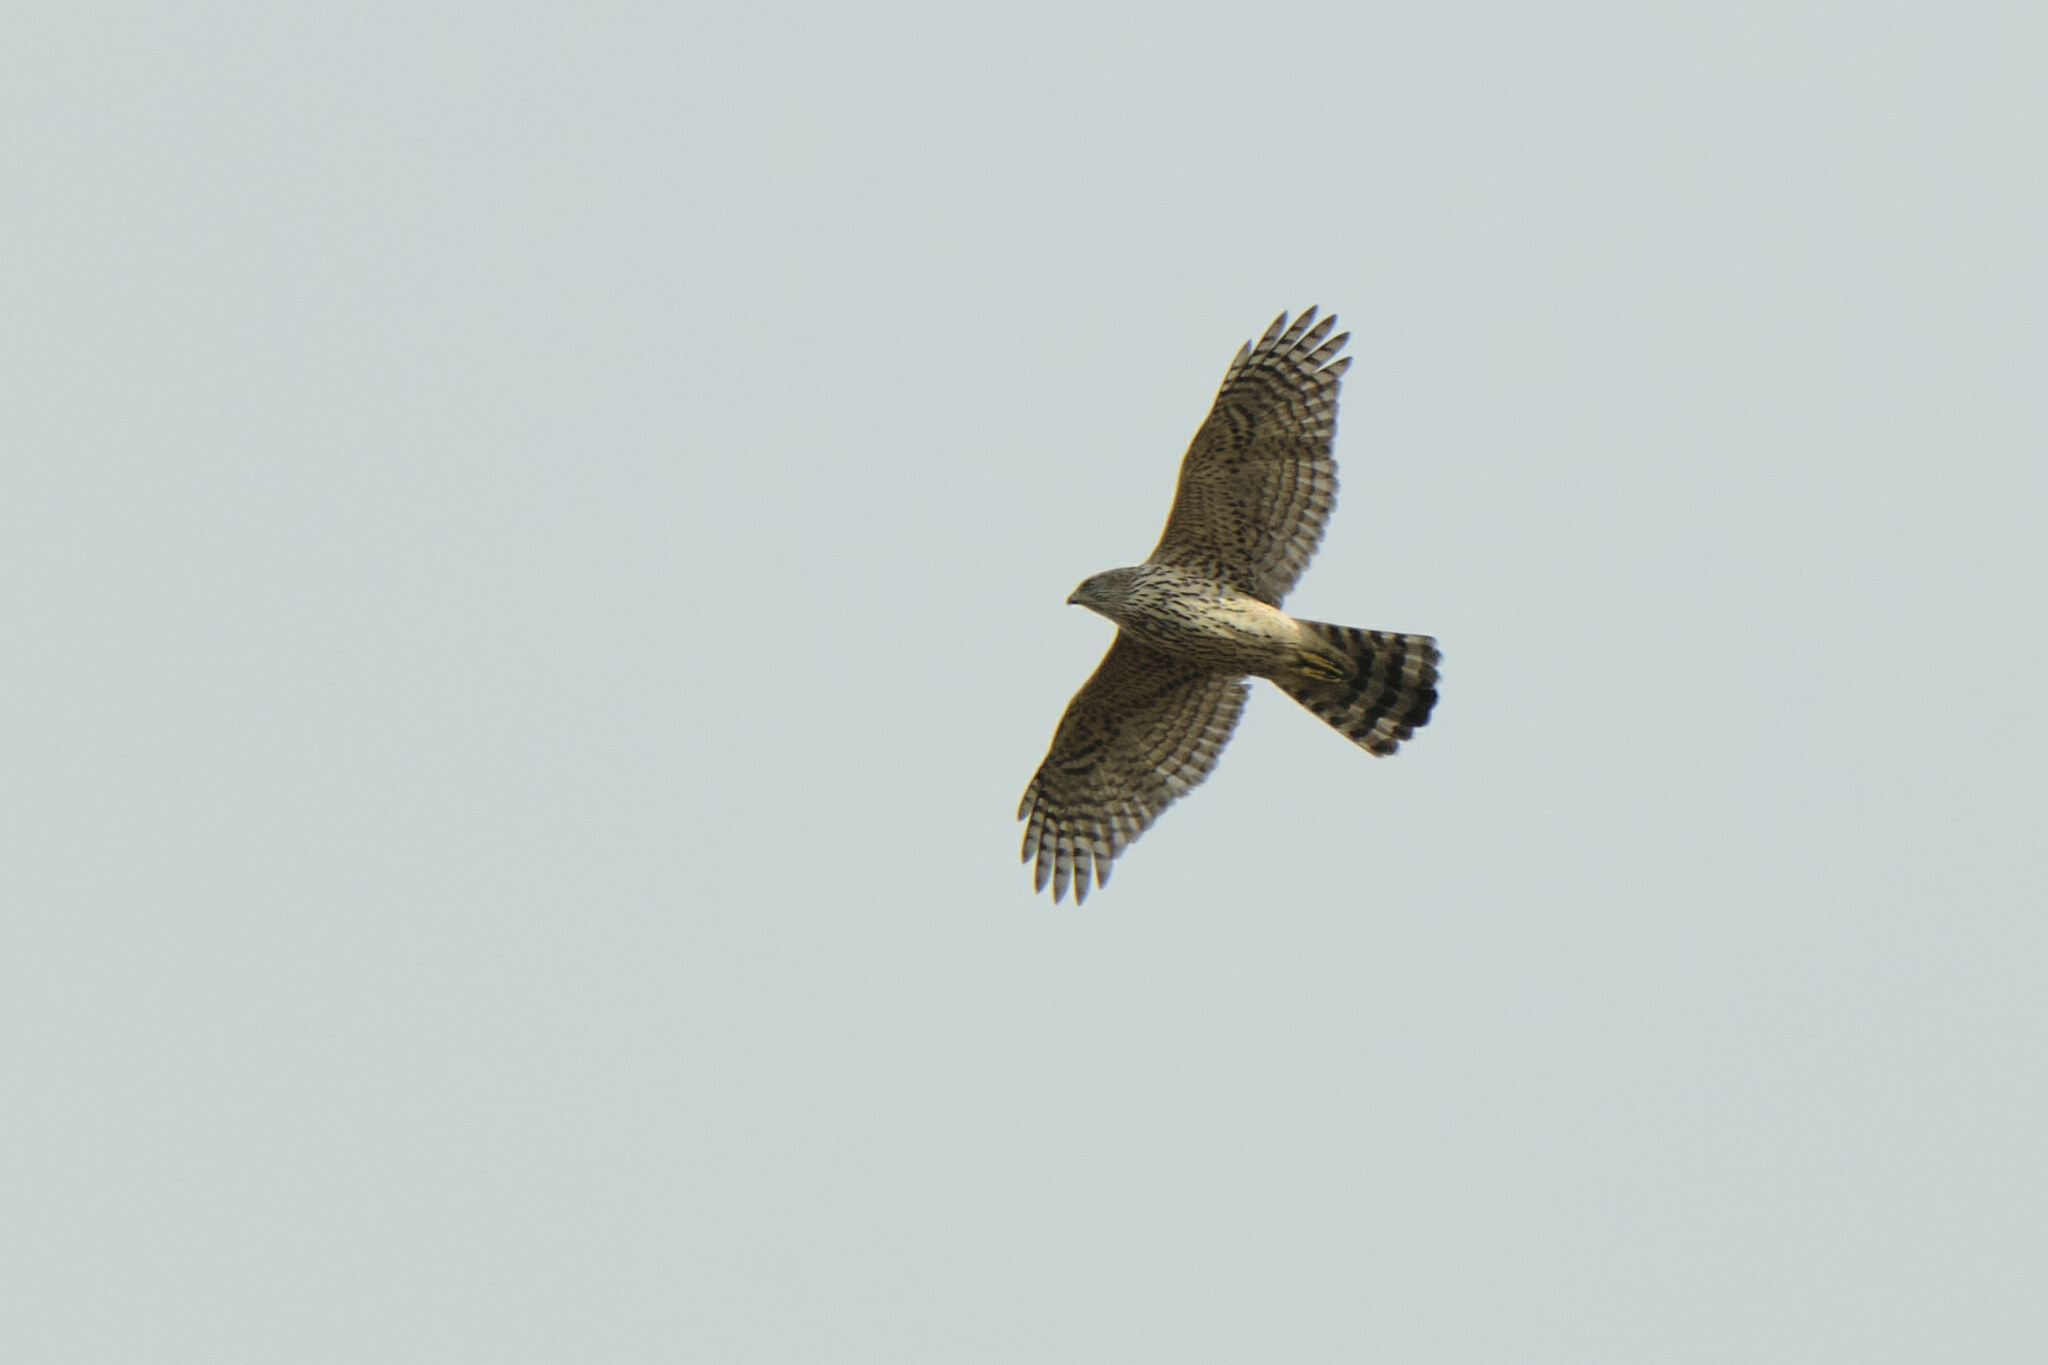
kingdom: Animalia
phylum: Chordata
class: Aves
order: Accipitriformes
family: Accipitridae
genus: Accipiter
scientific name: Accipiter gentilis
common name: Northern goshawk
